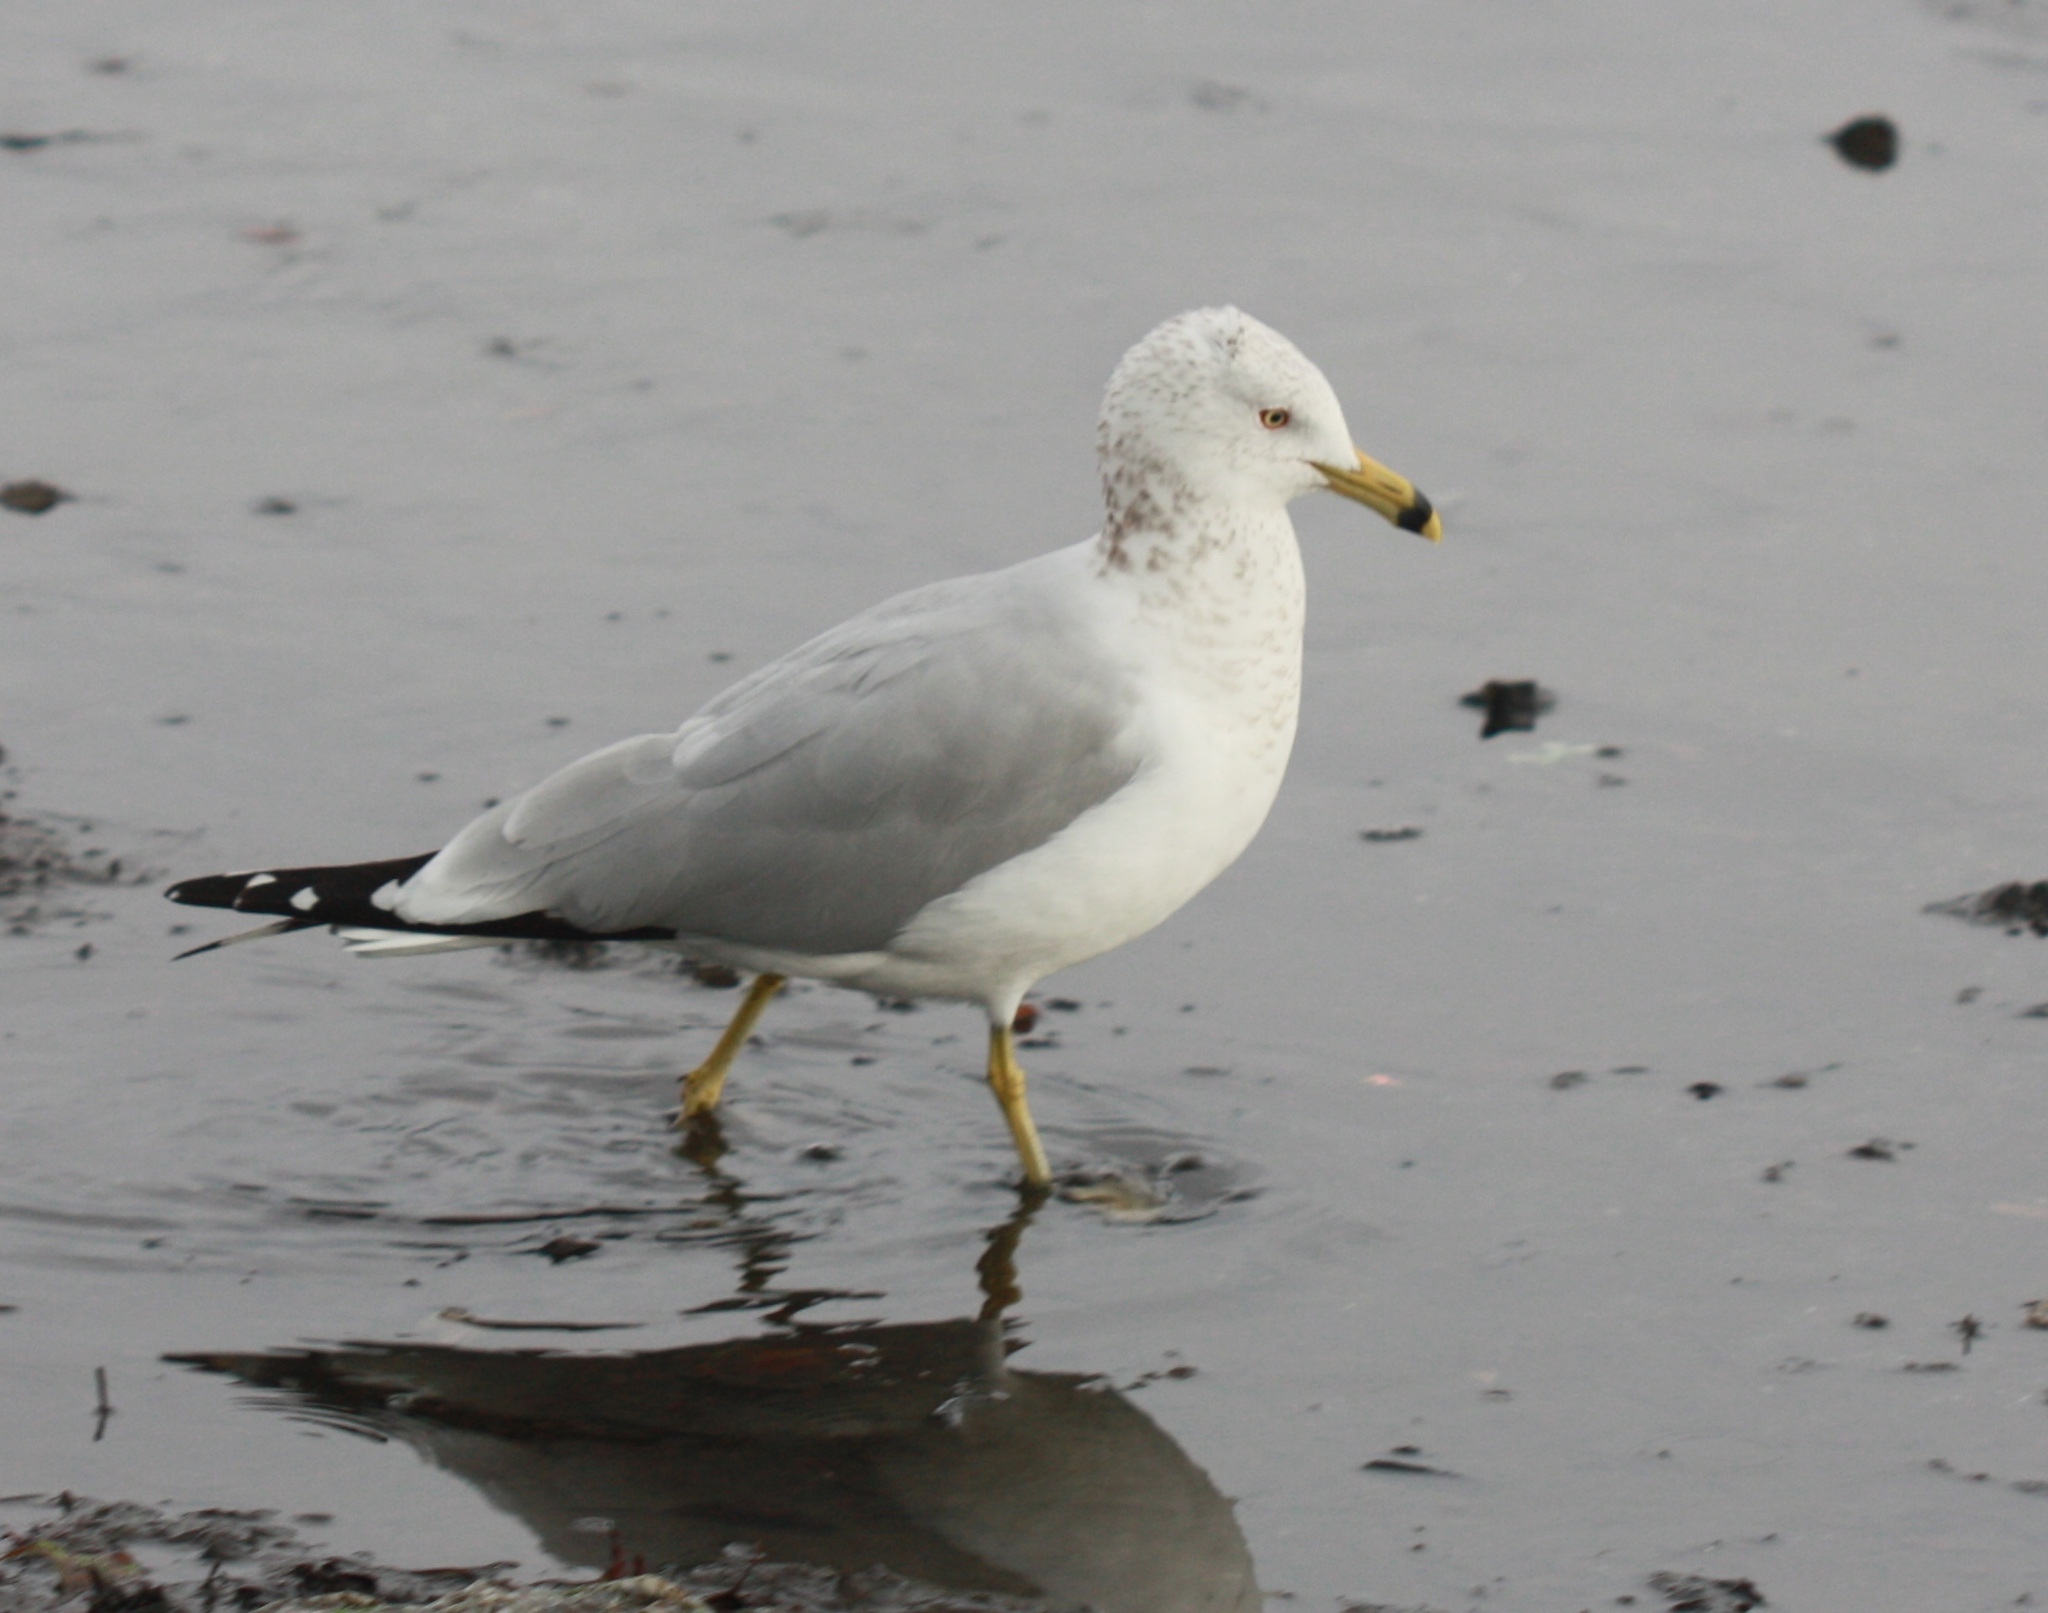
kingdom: Animalia
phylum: Chordata
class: Aves
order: Charadriiformes
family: Laridae
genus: Larus
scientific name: Larus delawarensis
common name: Ring-billed gull
